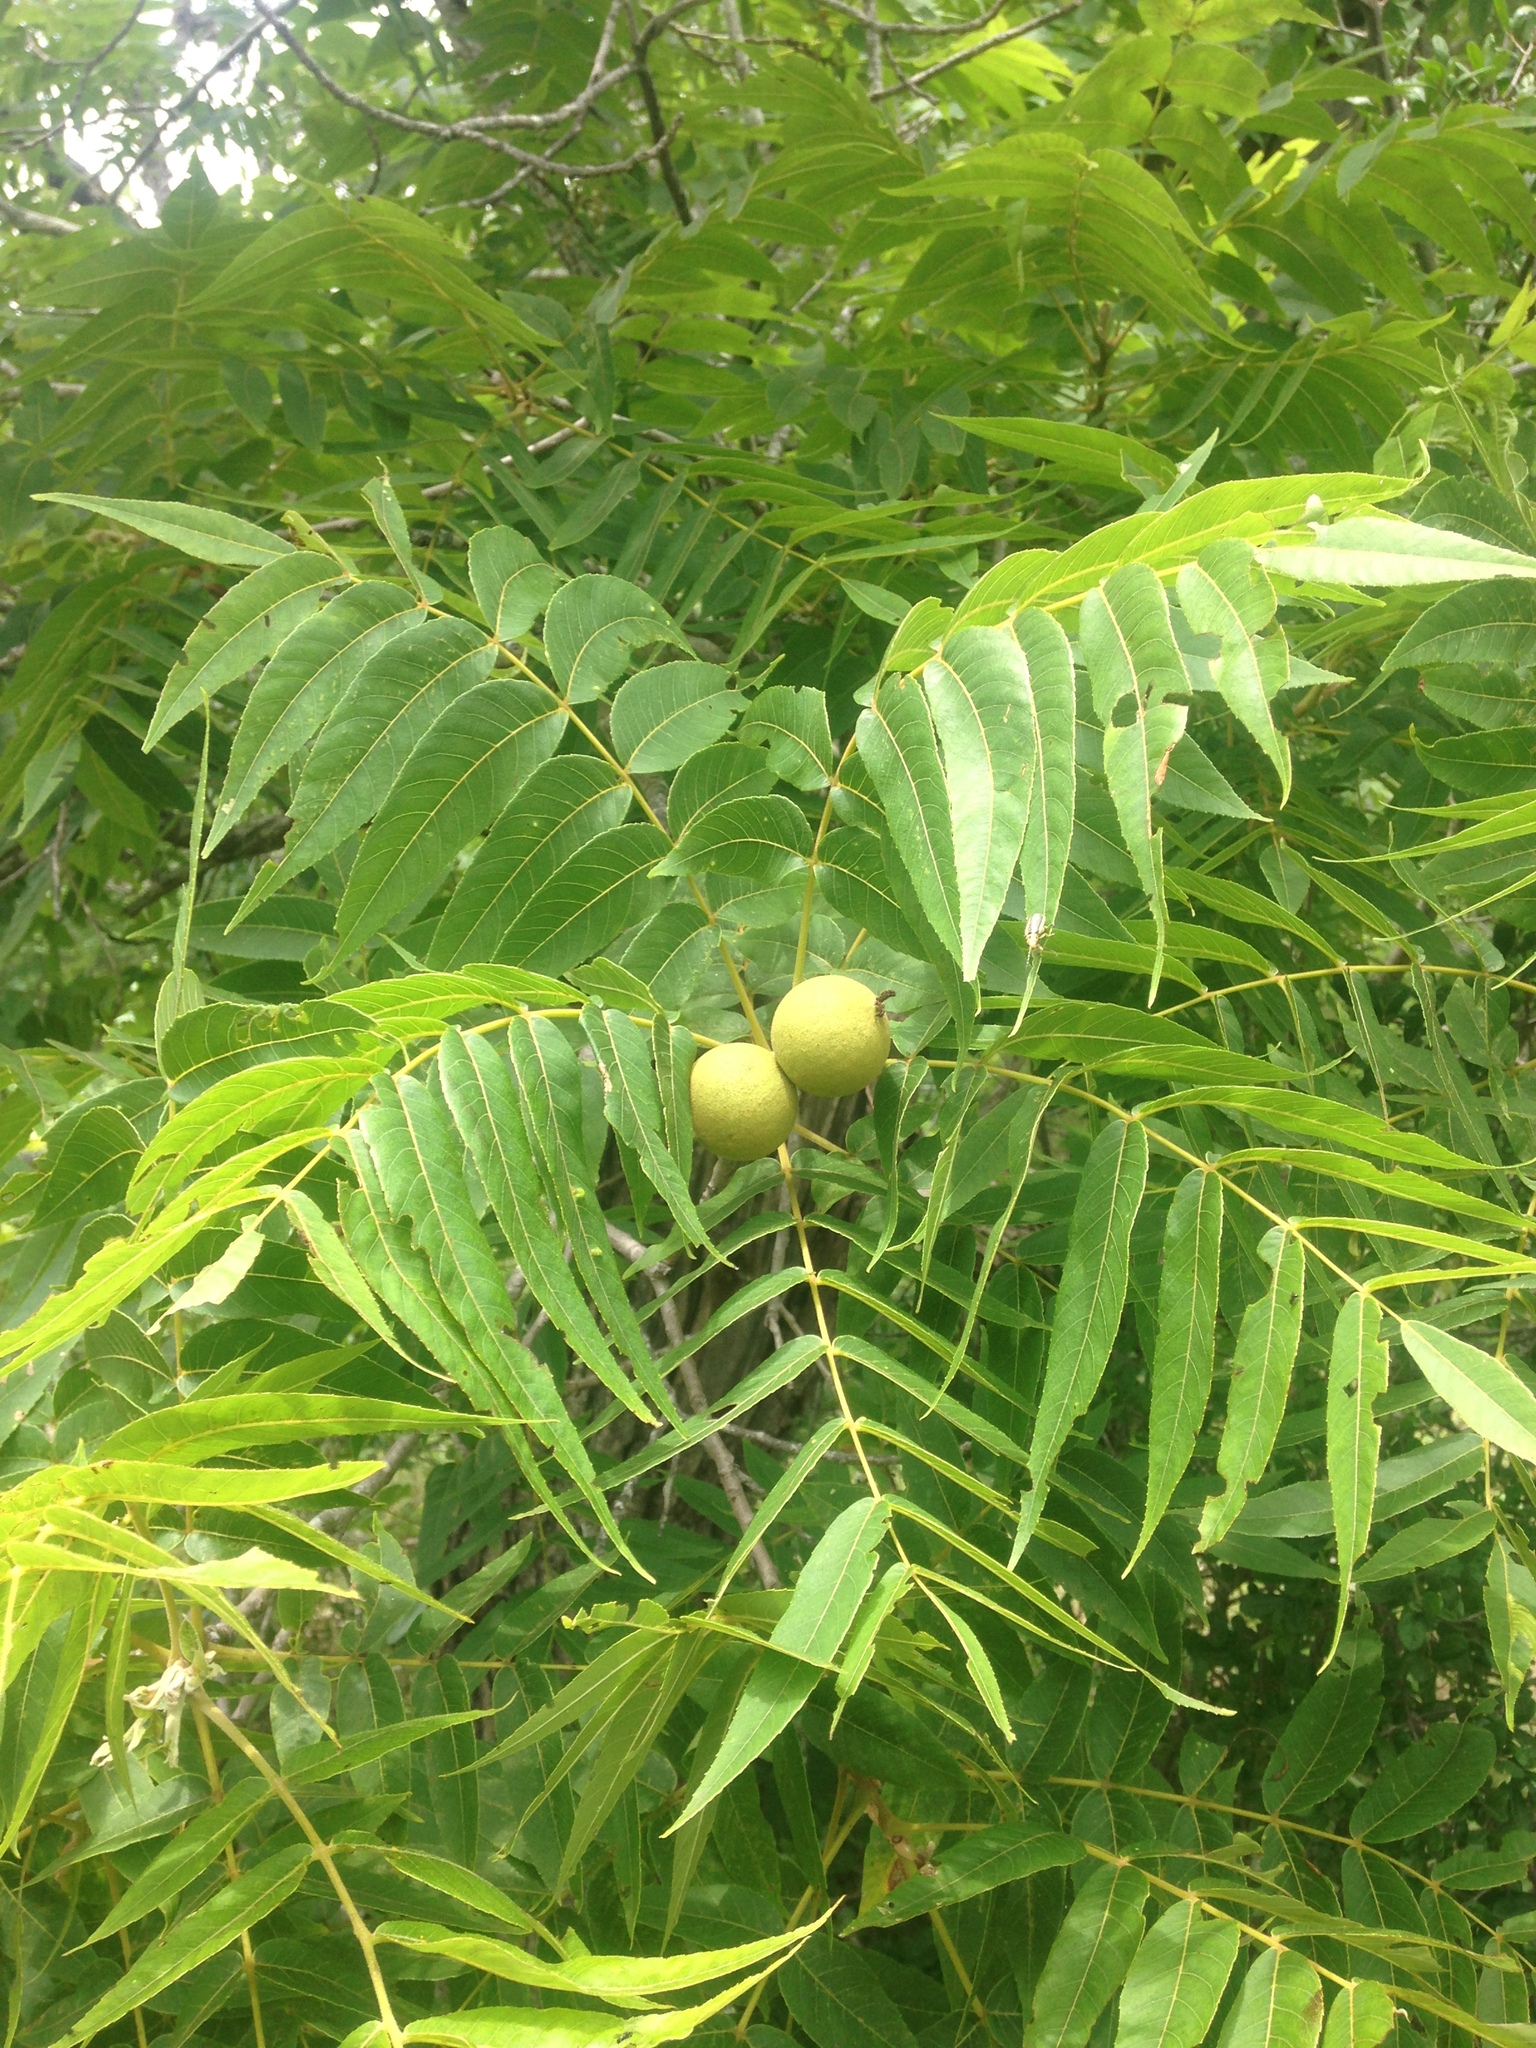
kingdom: Plantae
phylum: Tracheophyta
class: Magnoliopsida
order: Fagales
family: Juglandaceae
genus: Juglans
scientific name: Juglans microcarpa
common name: Texas walnut
